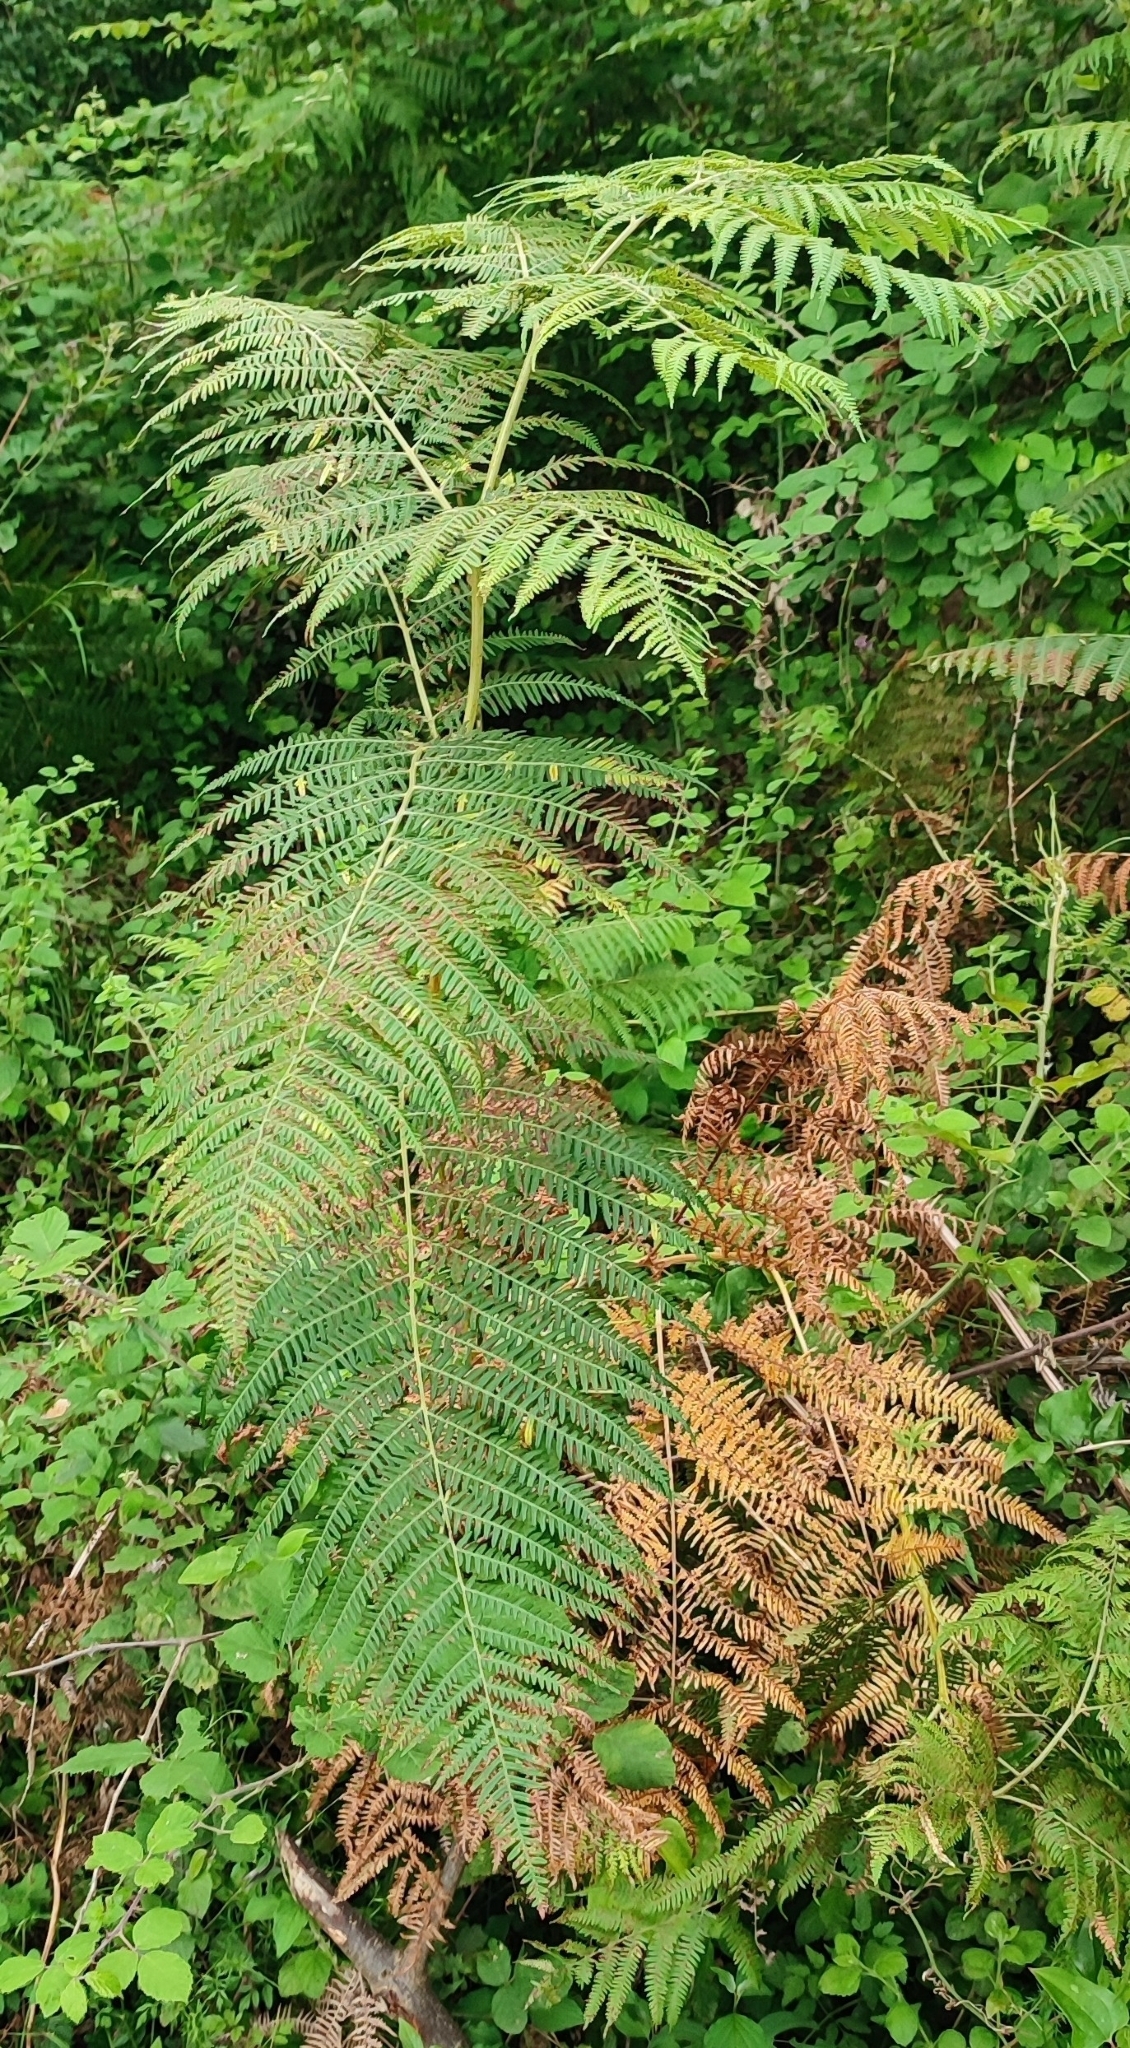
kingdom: Plantae
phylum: Tracheophyta
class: Polypodiopsida
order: Polypodiales
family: Dennstaedtiaceae
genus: Pteridium
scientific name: Pteridium tauricum
